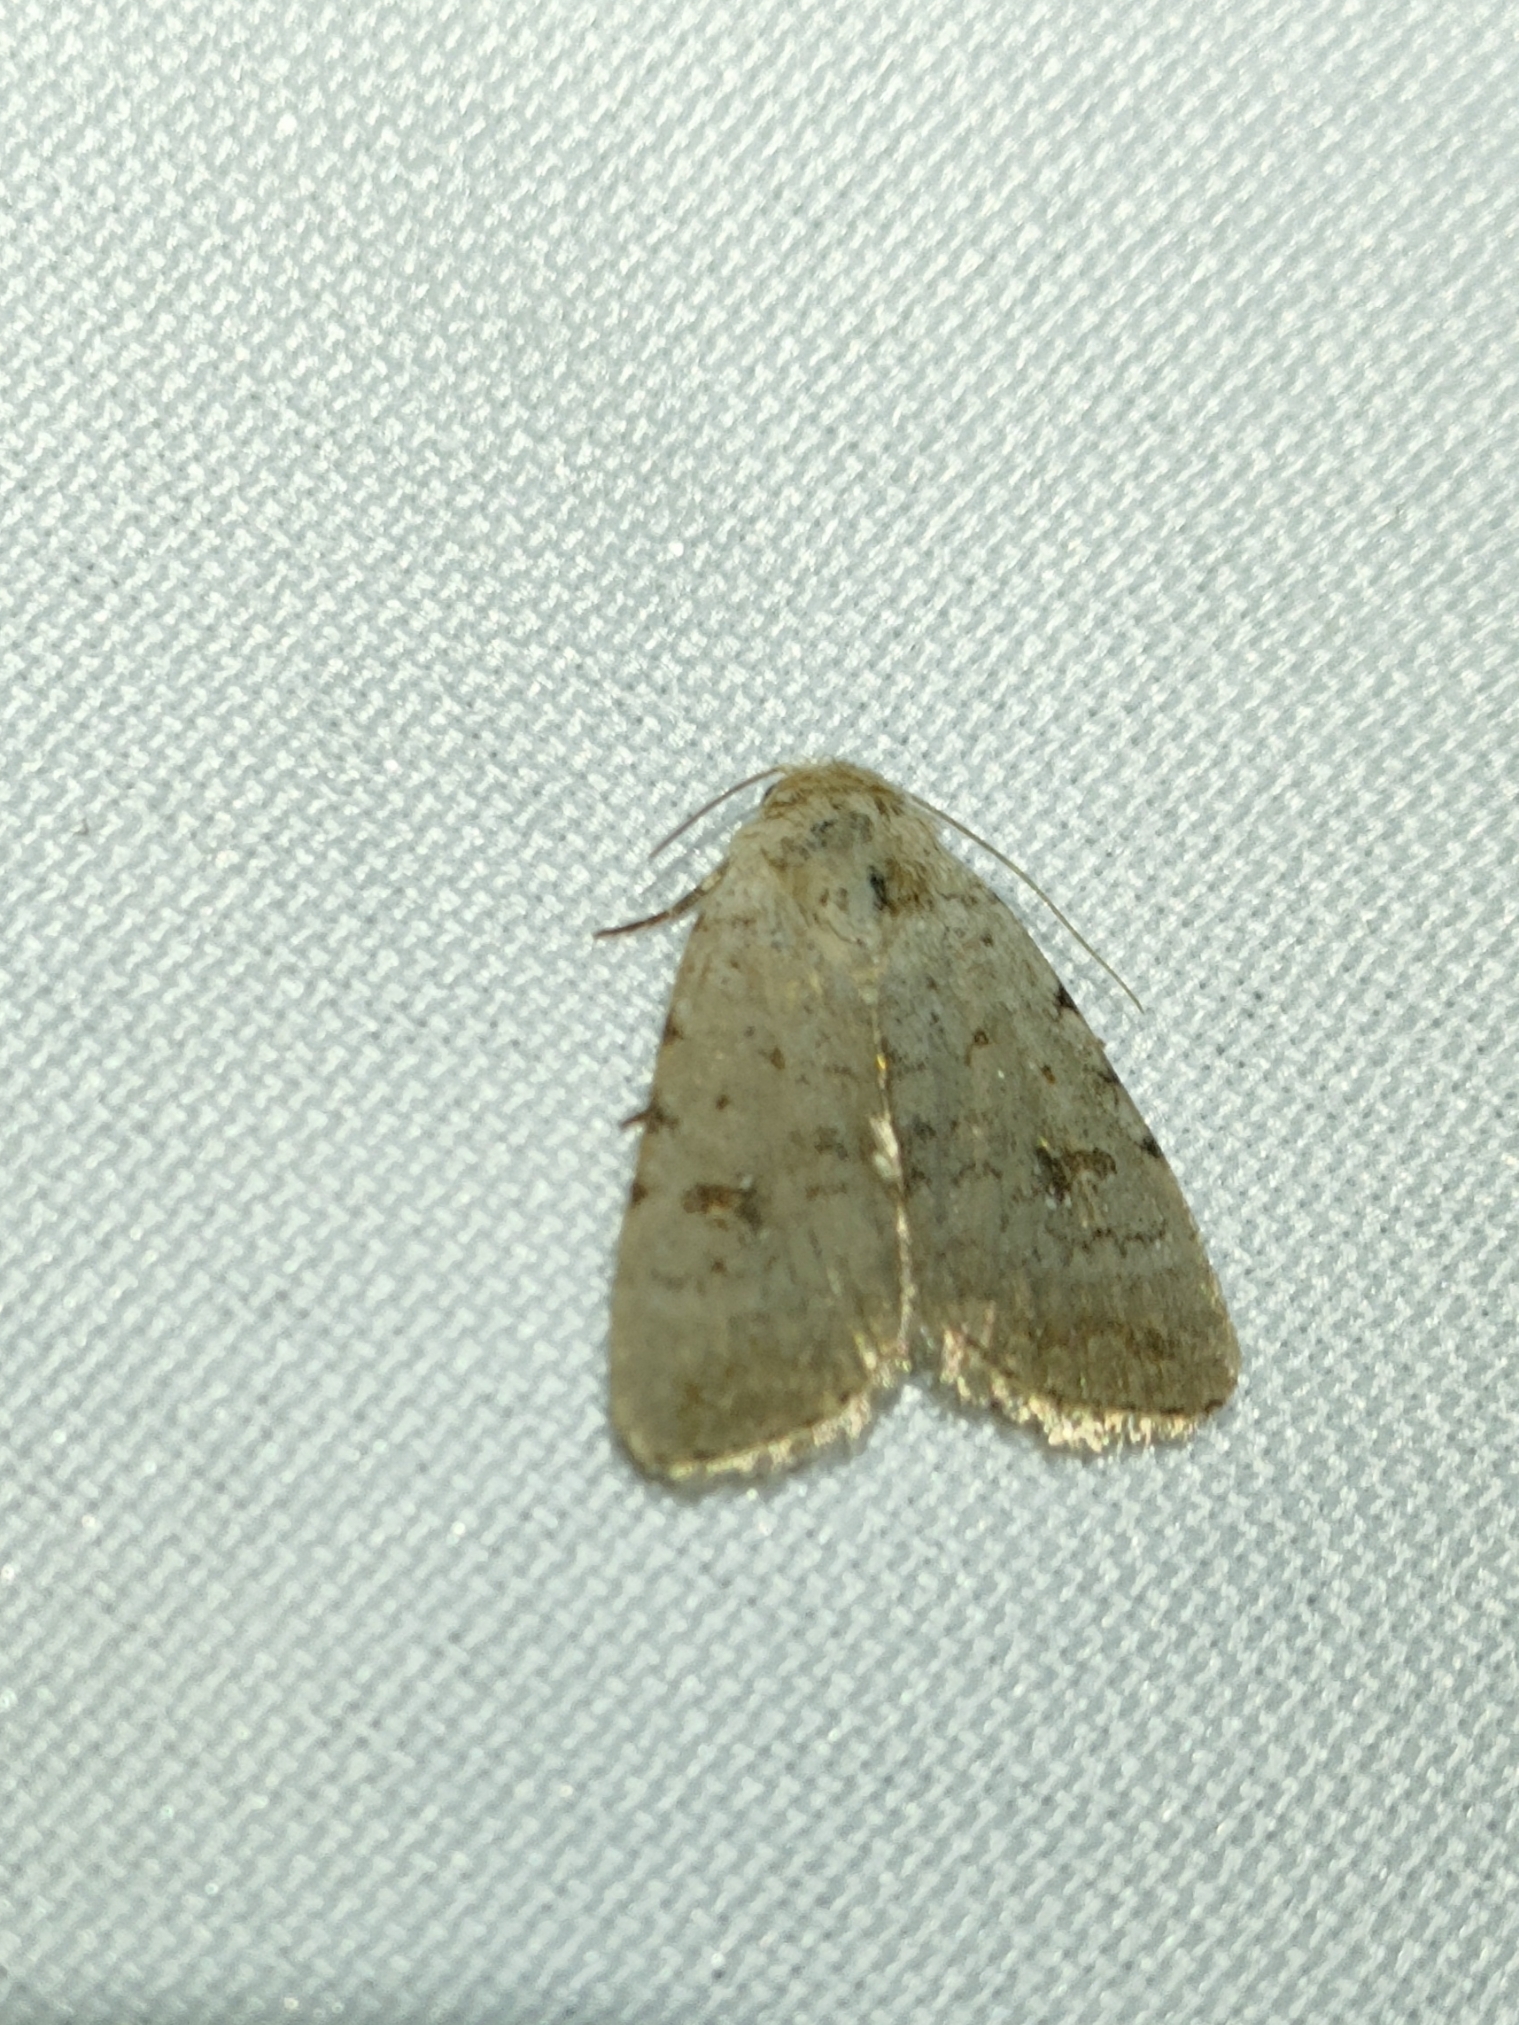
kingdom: Animalia
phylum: Arthropoda
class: Insecta
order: Lepidoptera
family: Noctuidae
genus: Caradrina
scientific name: Caradrina kadenii
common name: Clancy's rustic
